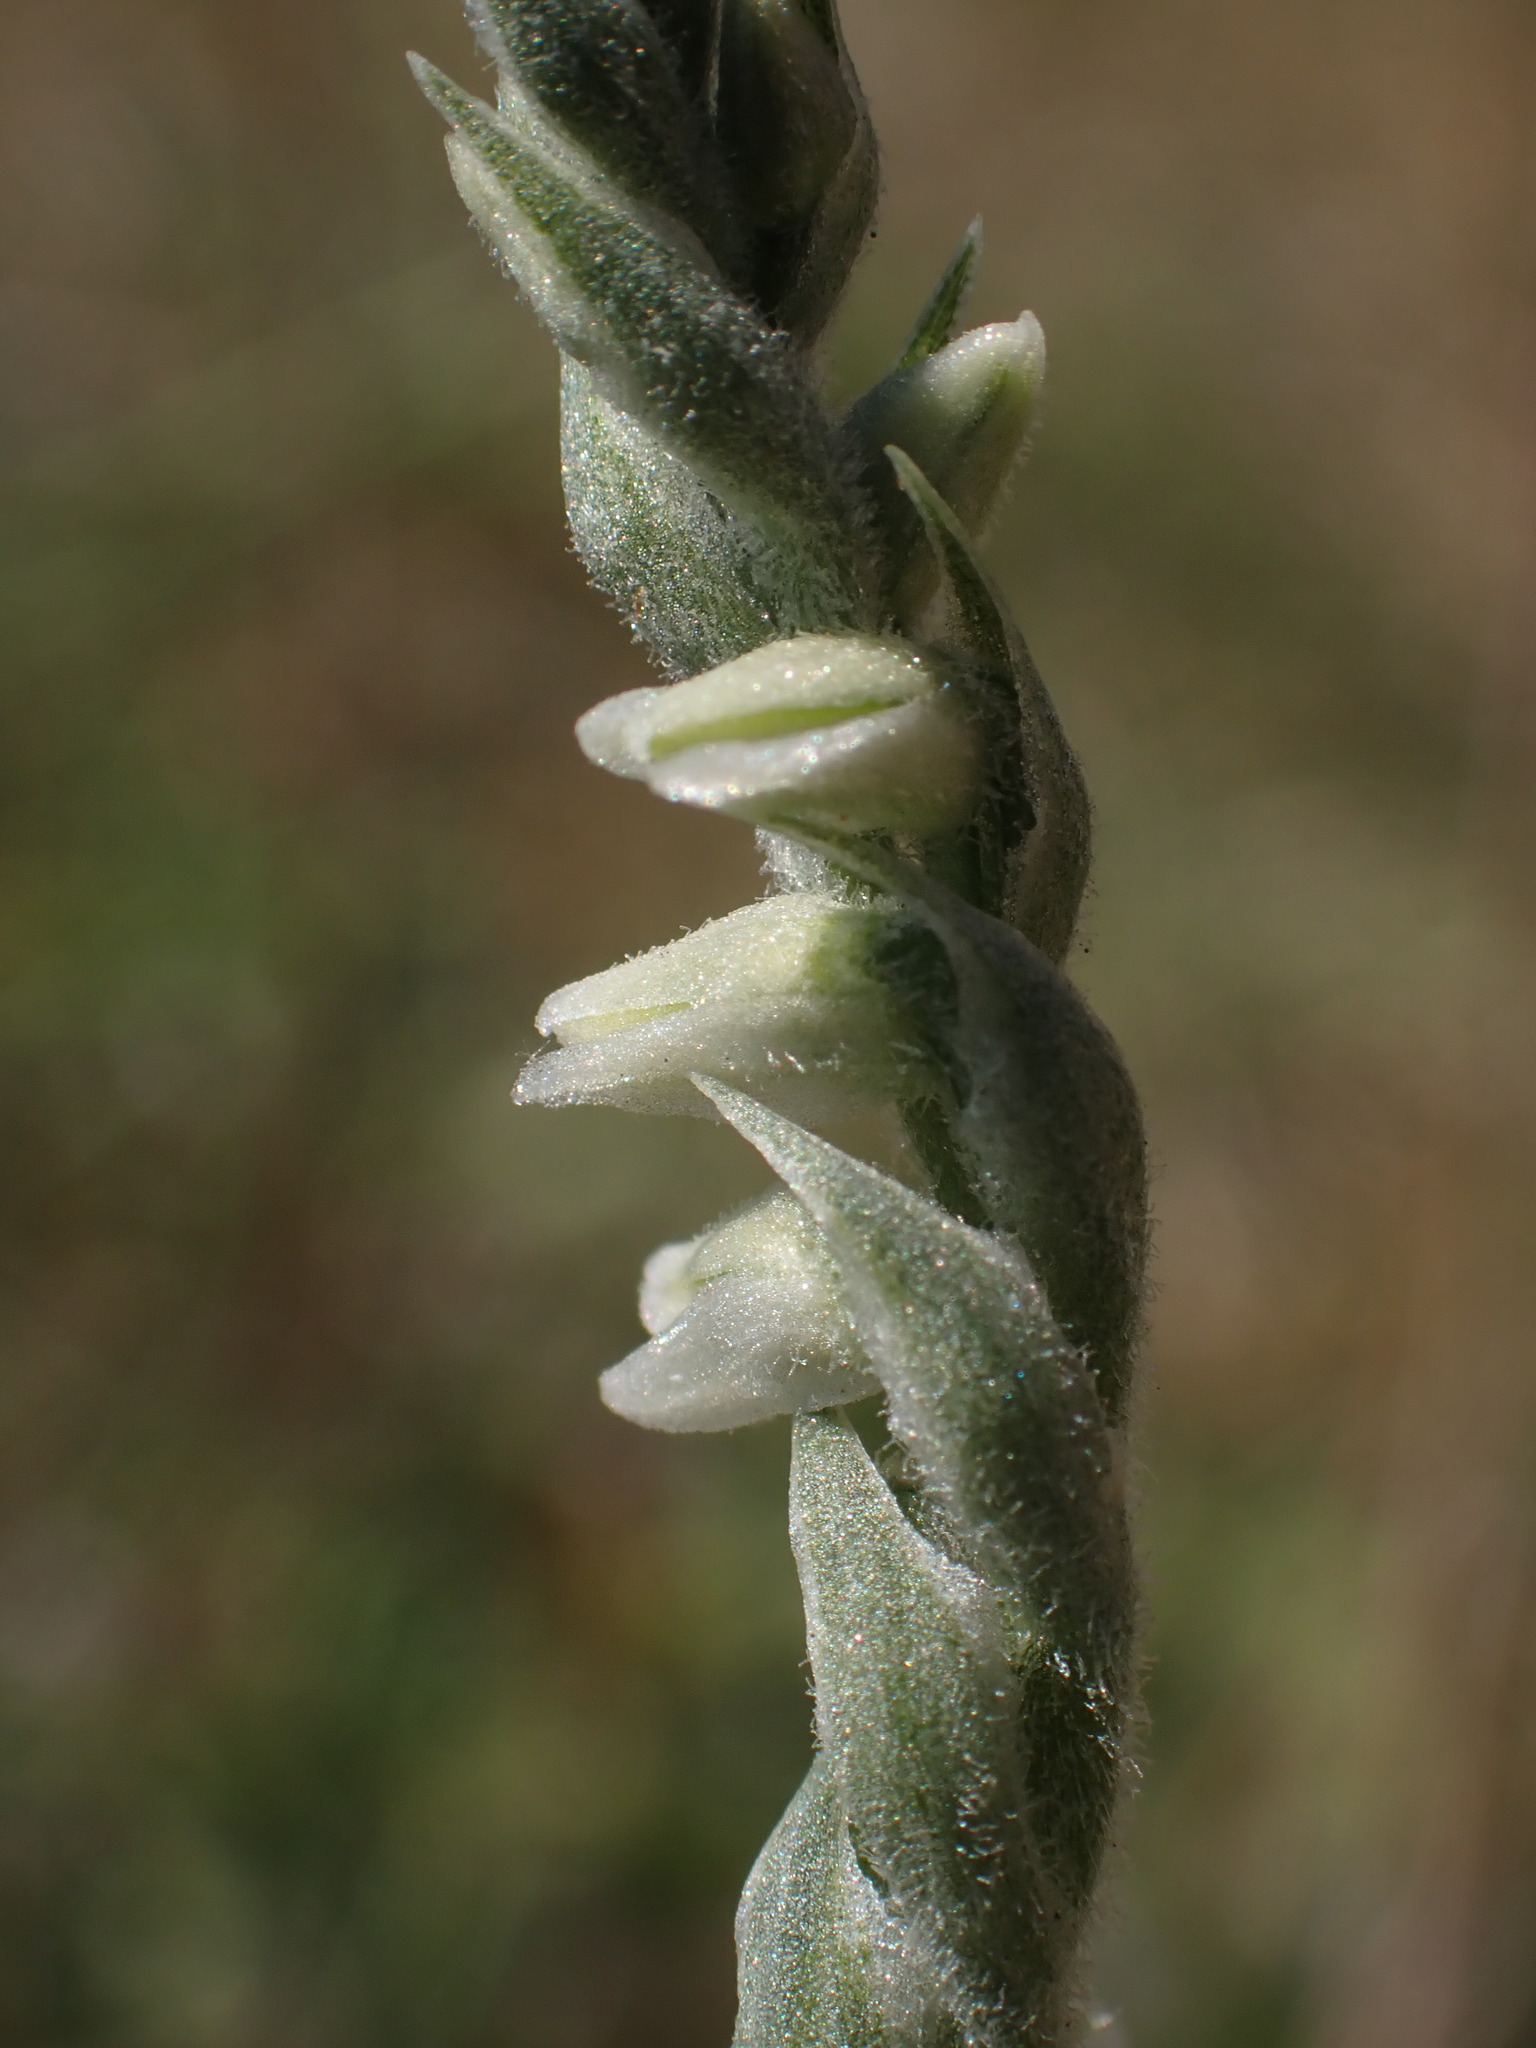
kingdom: Plantae
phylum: Tracheophyta
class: Liliopsida
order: Asparagales
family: Orchidaceae
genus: Spiranthes
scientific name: Spiranthes spiralis
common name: Autumn lady's-tresses
